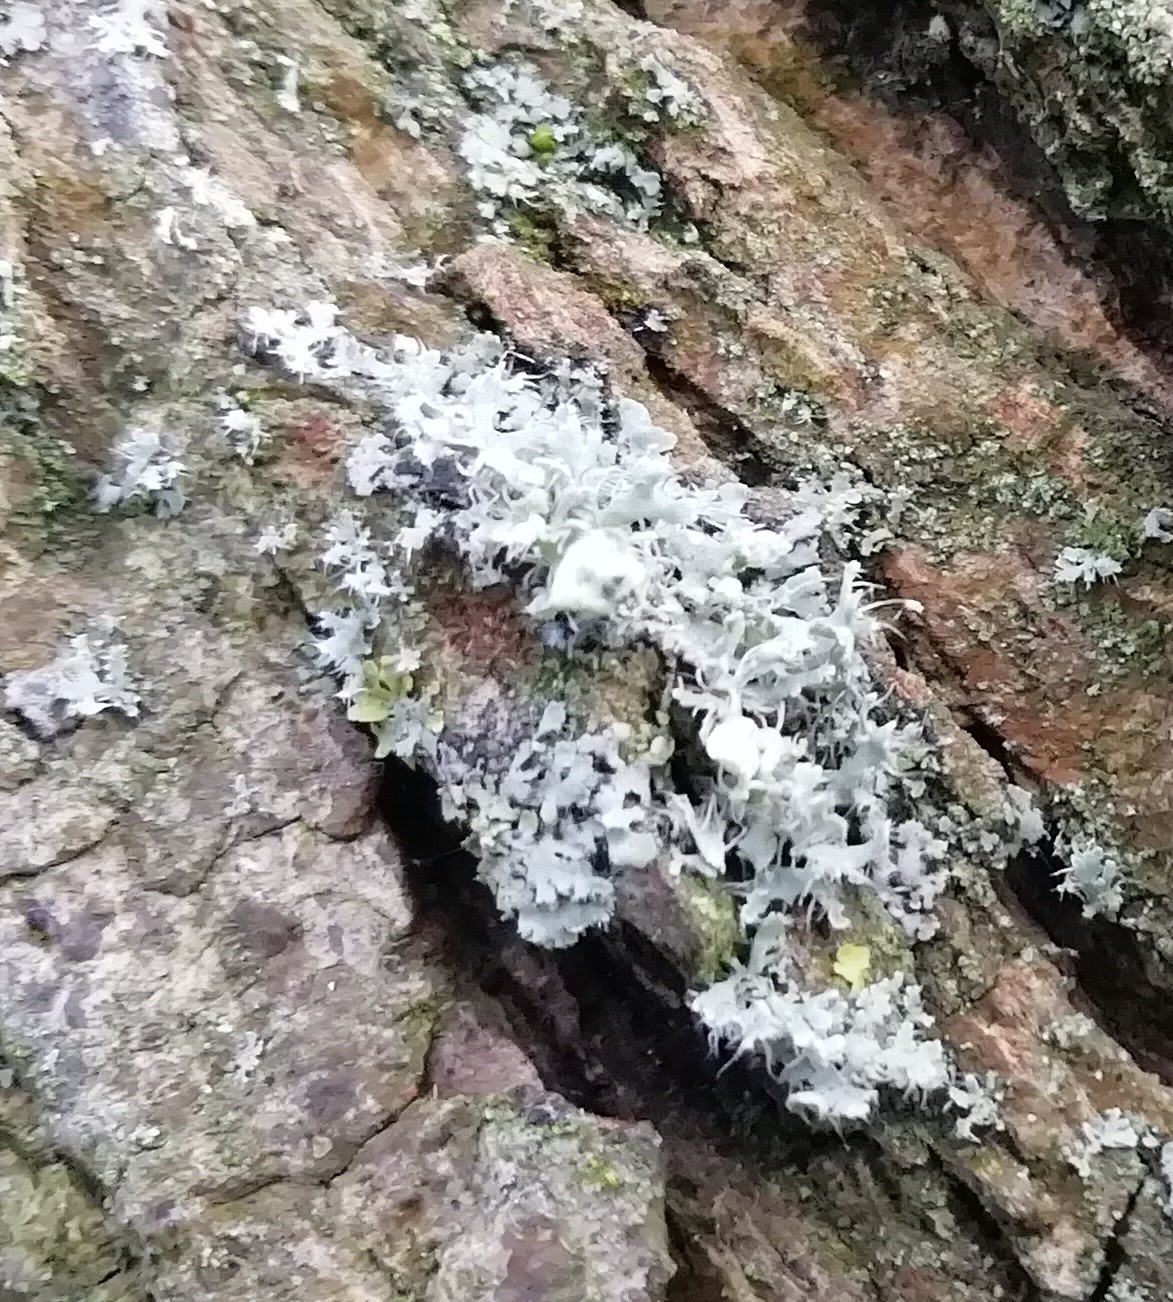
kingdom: Fungi
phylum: Ascomycota
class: Lecanoromycetes
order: Caliciales
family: Physciaceae
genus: Physcia
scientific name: Physcia adscendens
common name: Hooded rosette lichen
